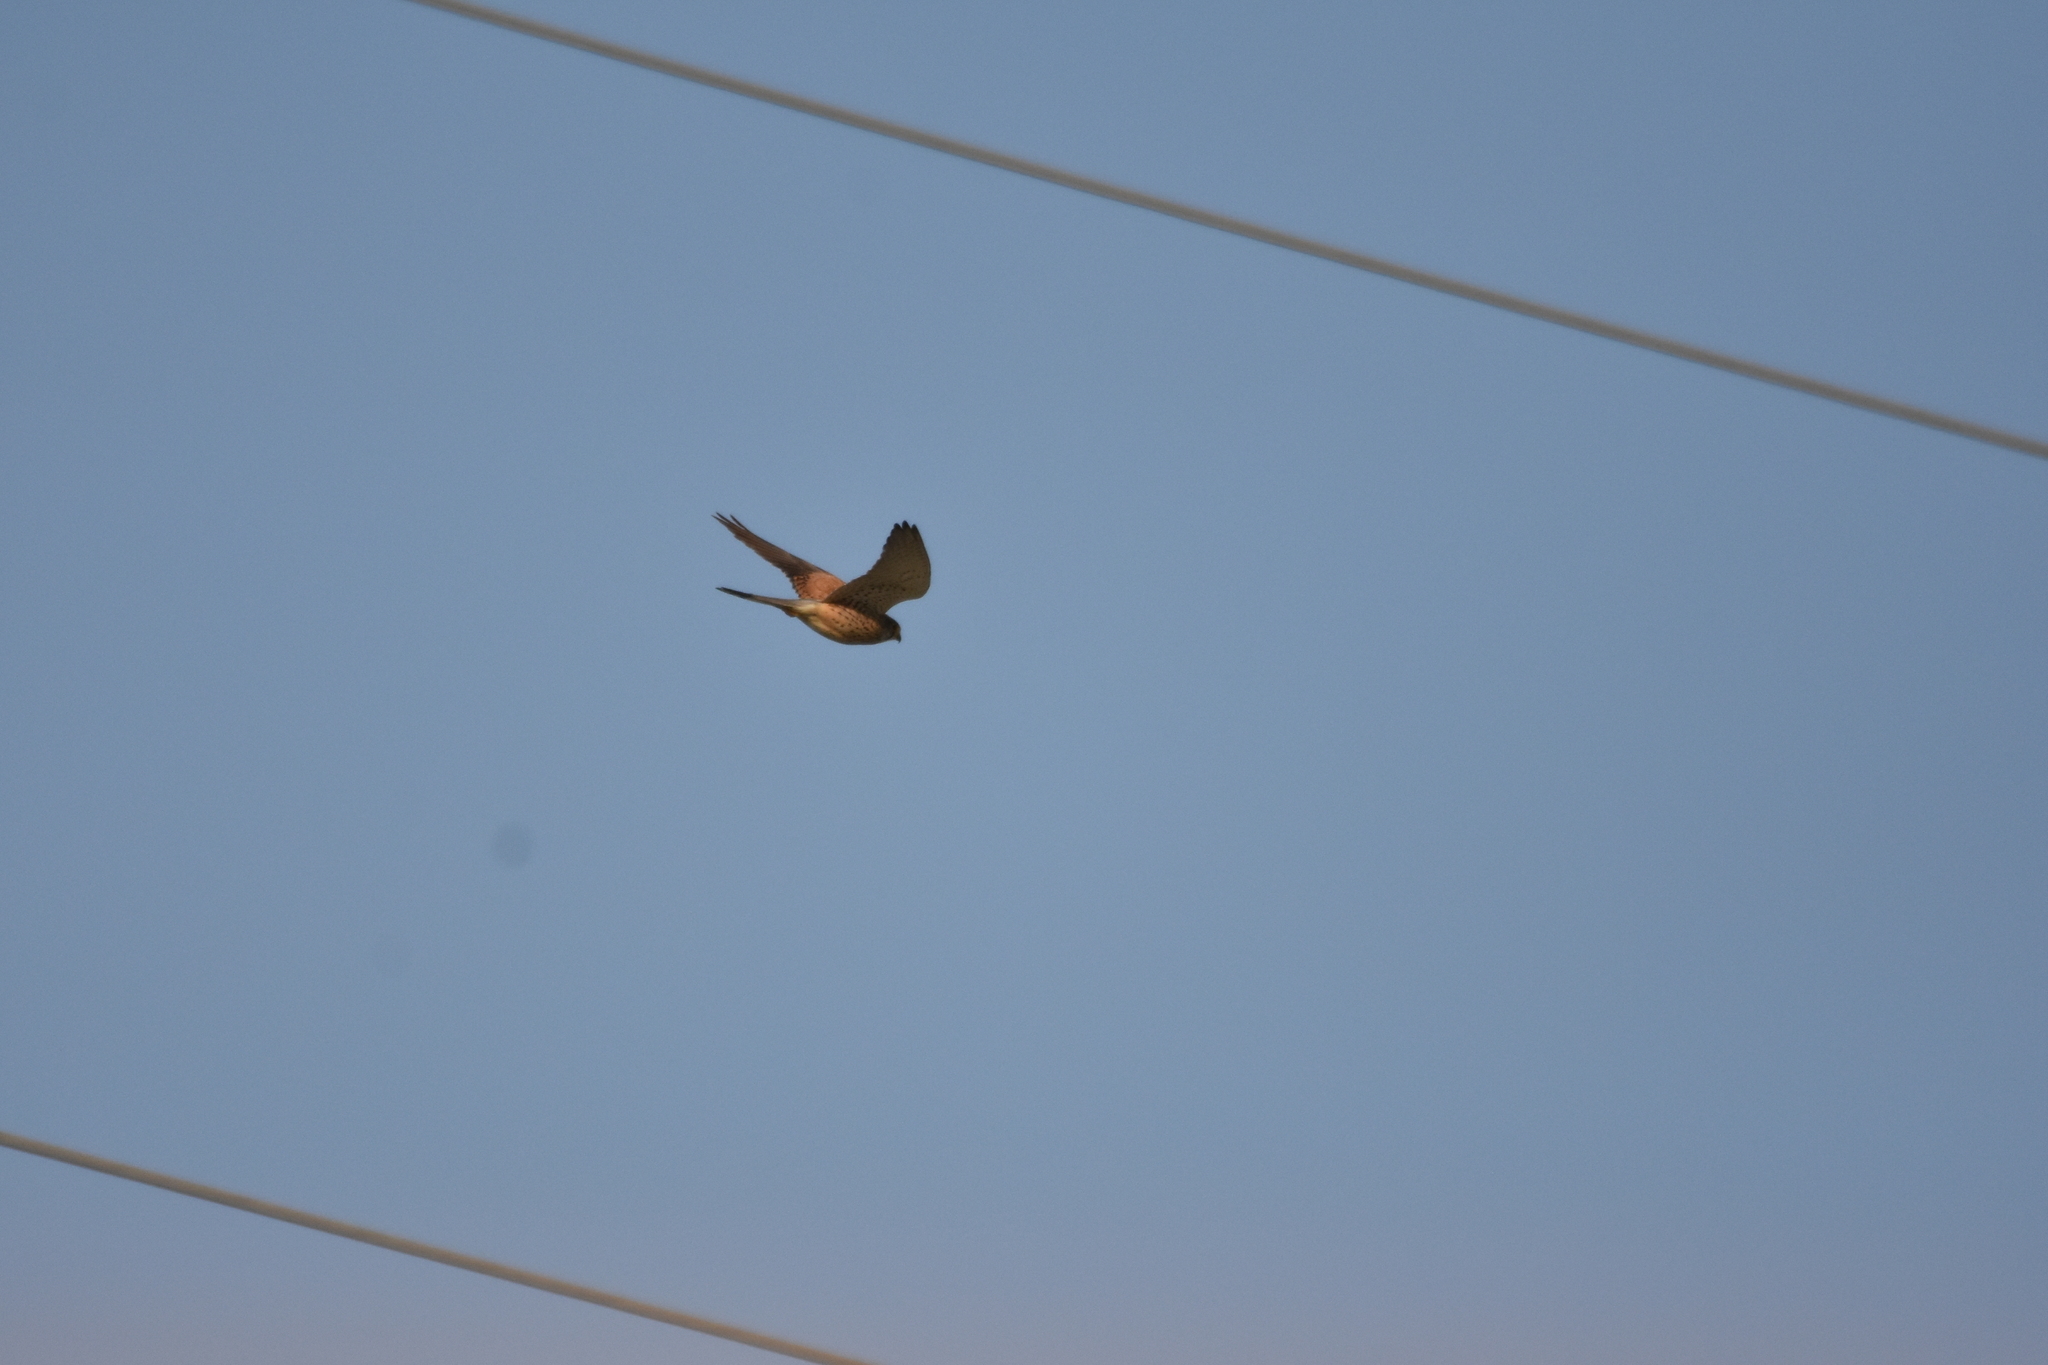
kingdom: Animalia
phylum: Chordata
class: Aves
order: Falconiformes
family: Falconidae
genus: Falco
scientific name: Falco tinnunculus
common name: Common kestrel
